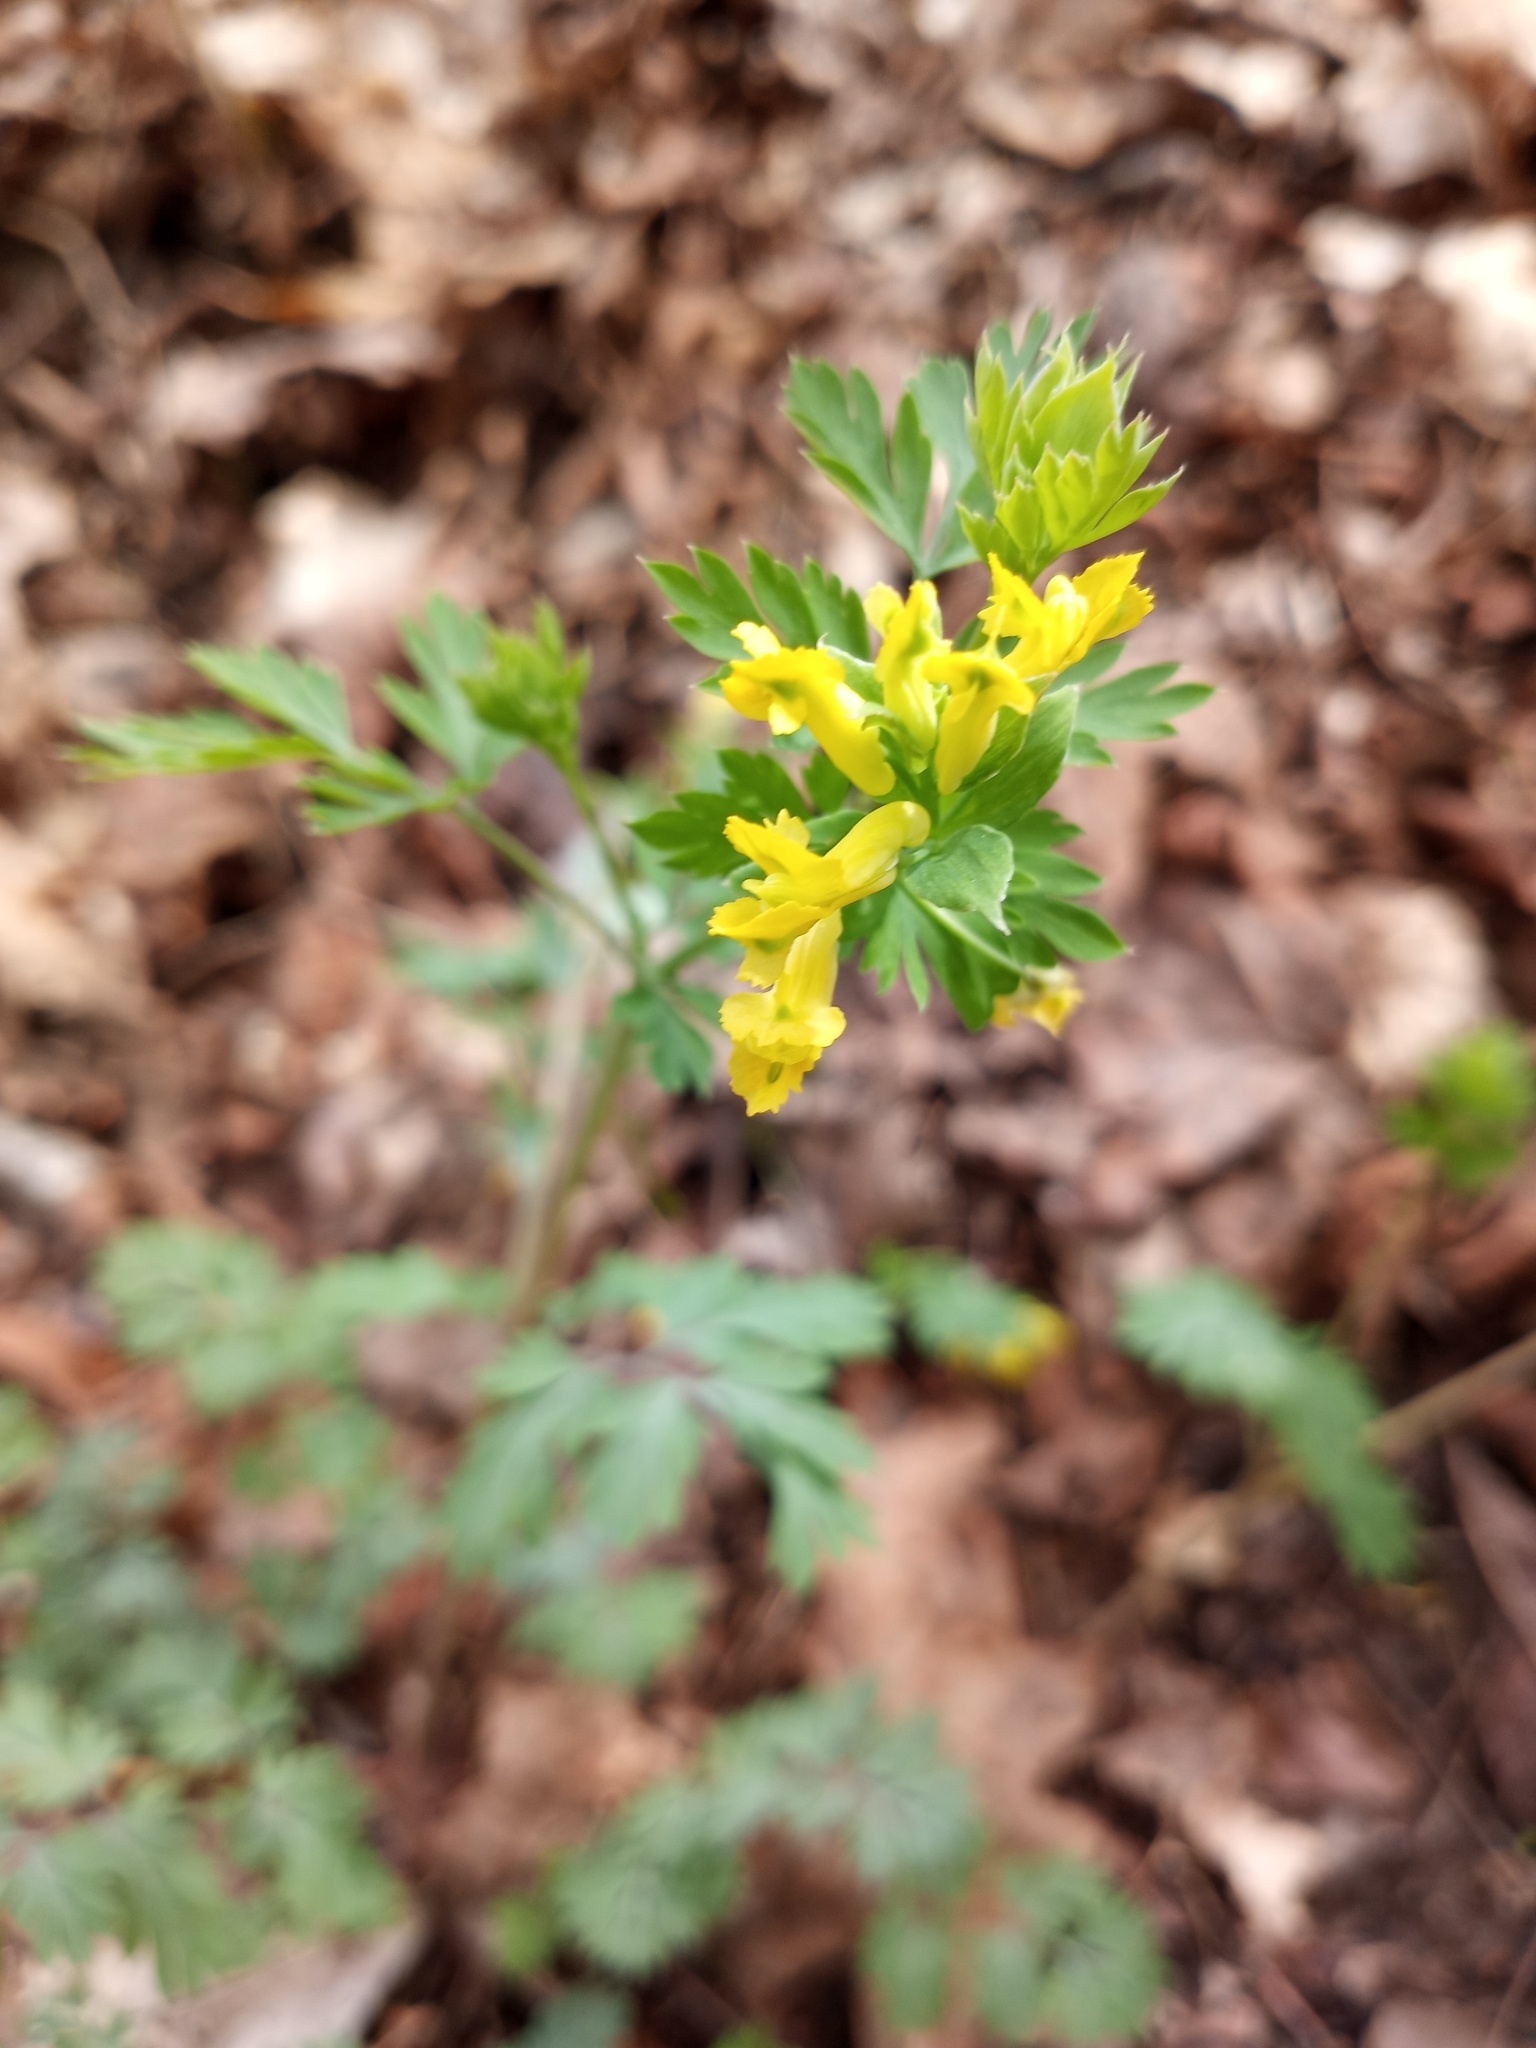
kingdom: Plantae
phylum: Tracheophyta
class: Magnoliopsida
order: Ranunculales
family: Papaveraceae
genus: Corydalis
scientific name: Corydalis flavula
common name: Yellow corydalis
